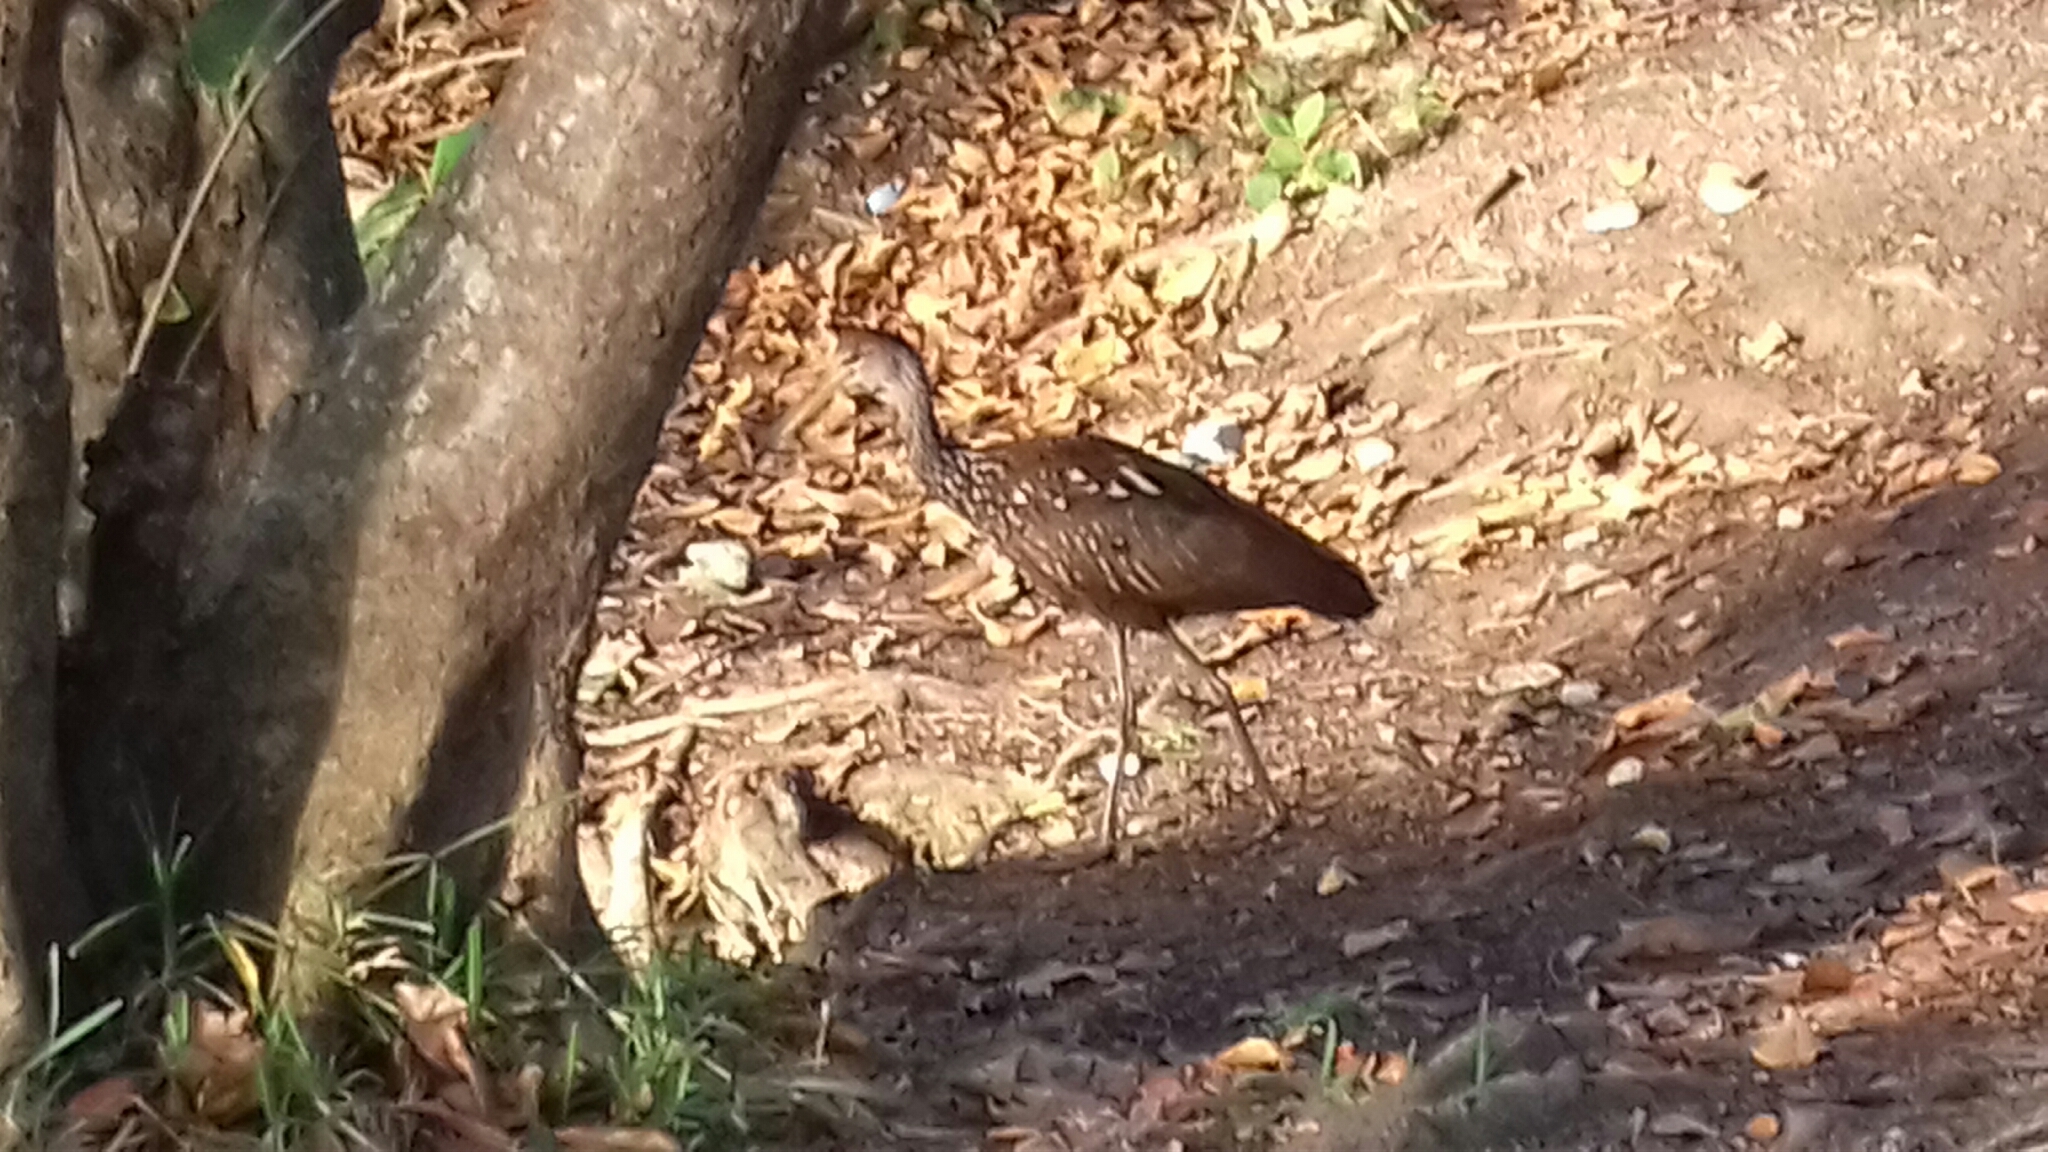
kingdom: Animalia
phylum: Chordata
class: Aves
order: Gruiformes
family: Aramidae
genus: Aramus
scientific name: Aramus guarauna
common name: Limpkin
